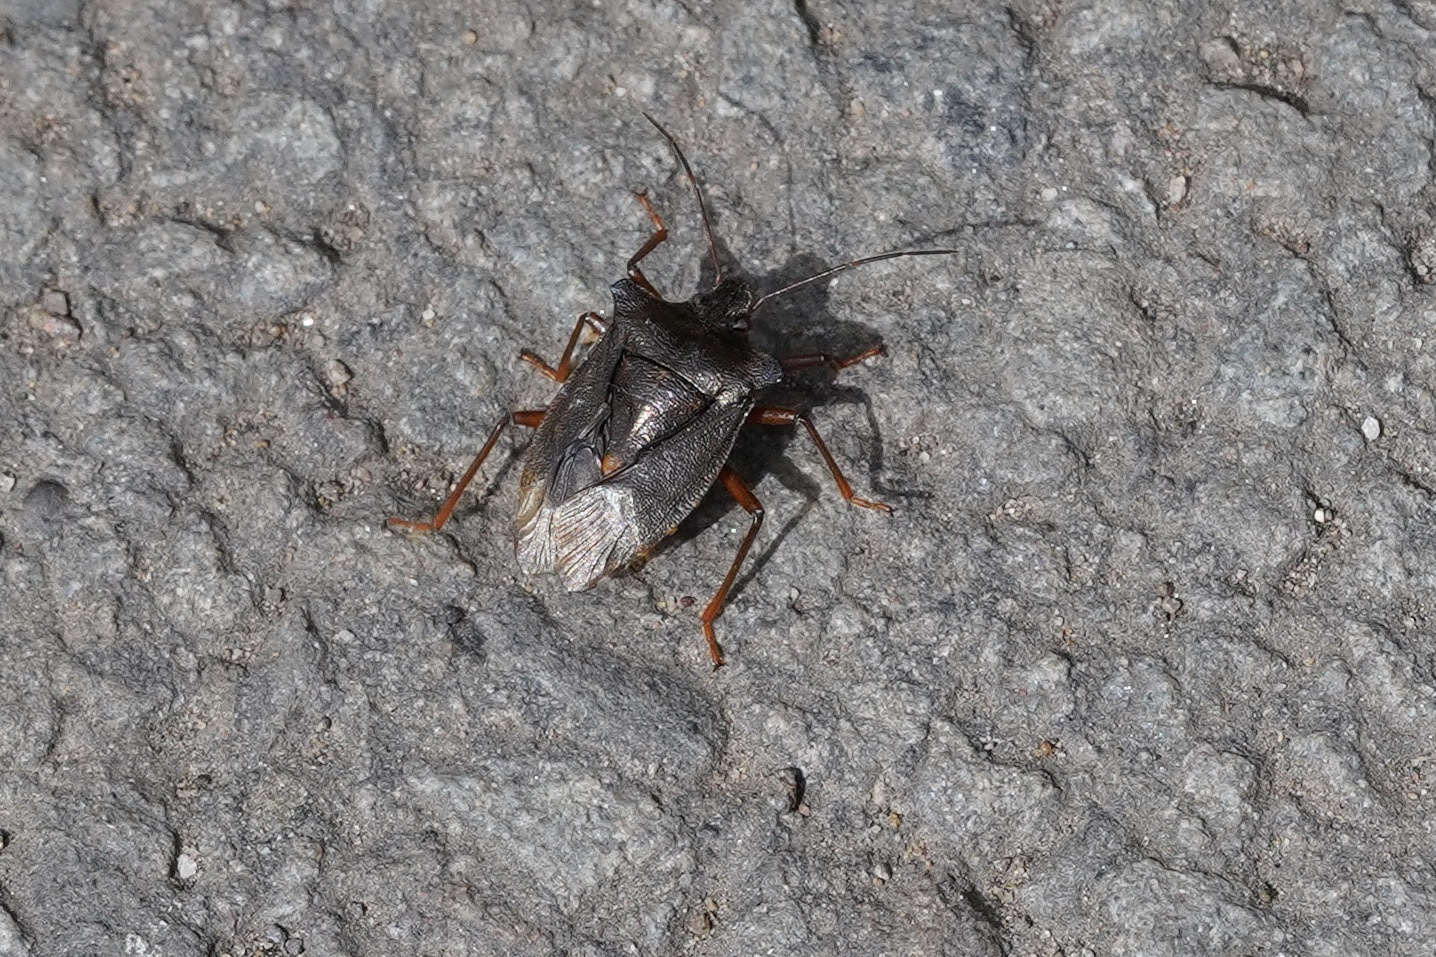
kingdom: Animalia
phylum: Arthropoda
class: Insecta
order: Hemiptera
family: Pentatomidae
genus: Pentatoma
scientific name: Pentatoma rufipes
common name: Forest bug
